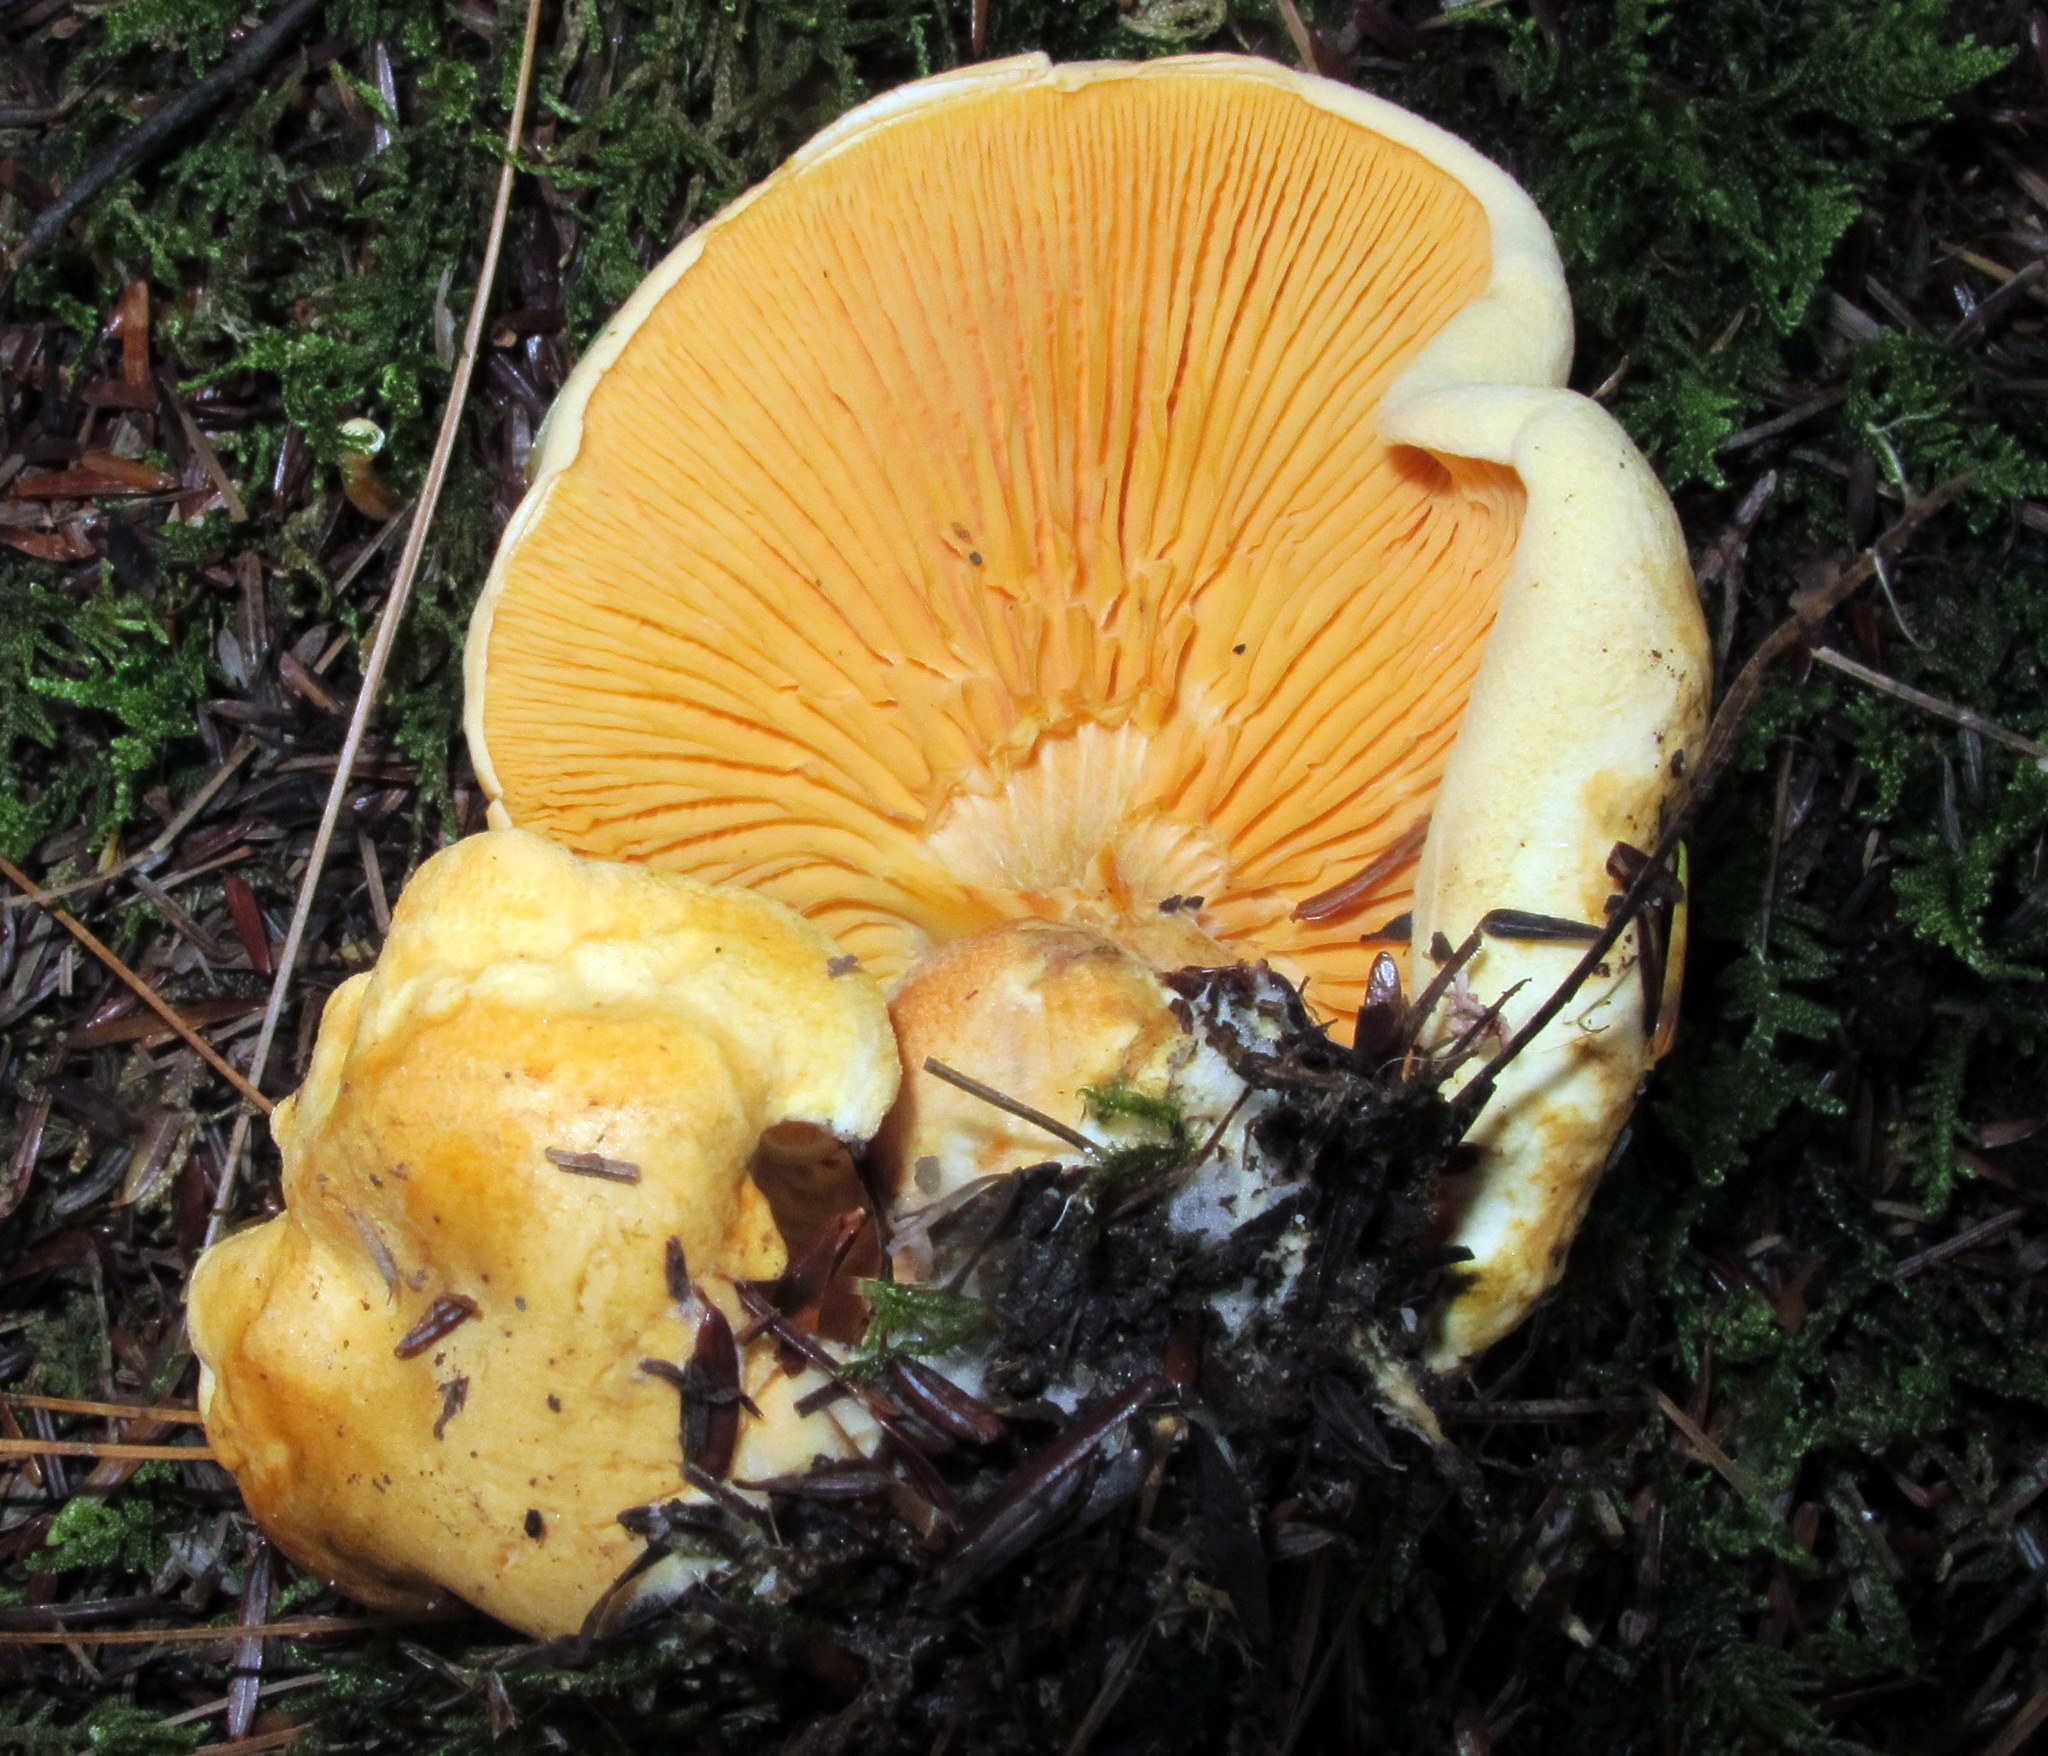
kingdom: Fungi
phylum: Basidiomycota
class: Agaricomycetes
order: Boletales
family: Hygrophoropsidaceae
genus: Hygrophoropsis
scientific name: Hygrophoropsis aurantiaca
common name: False chanterelle
